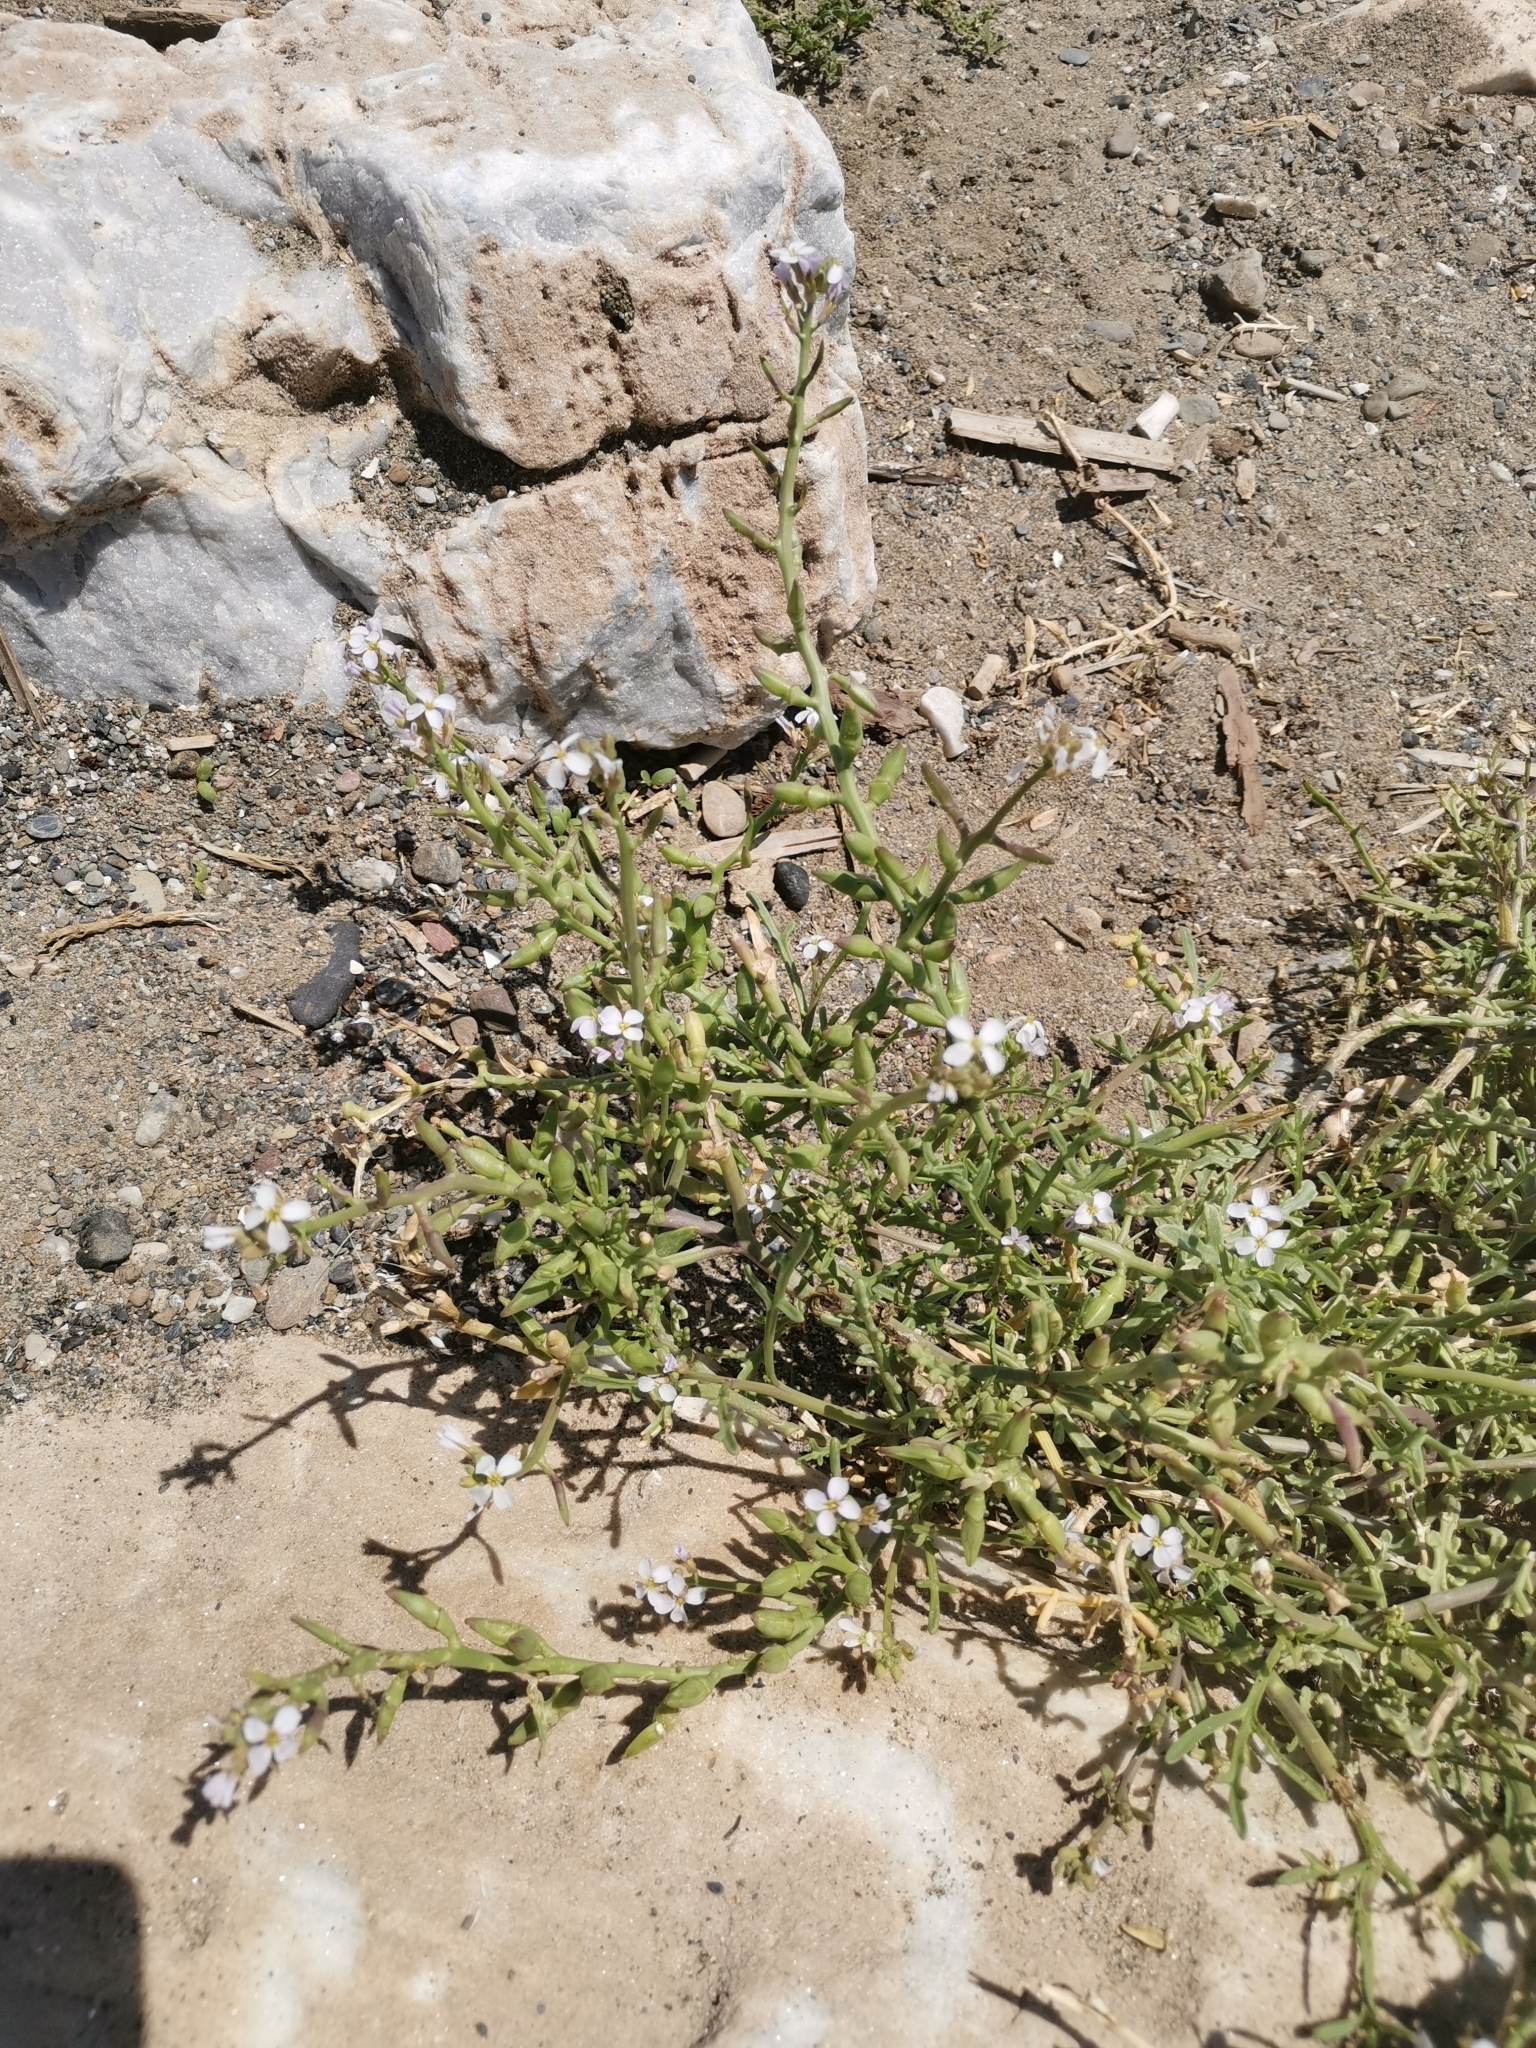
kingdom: Plantae
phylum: Tracheophyta
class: Magnoliopsida
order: Brassicales
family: Brassicaceae
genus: Cakile
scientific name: Cakile maritima
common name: Sea rocket
